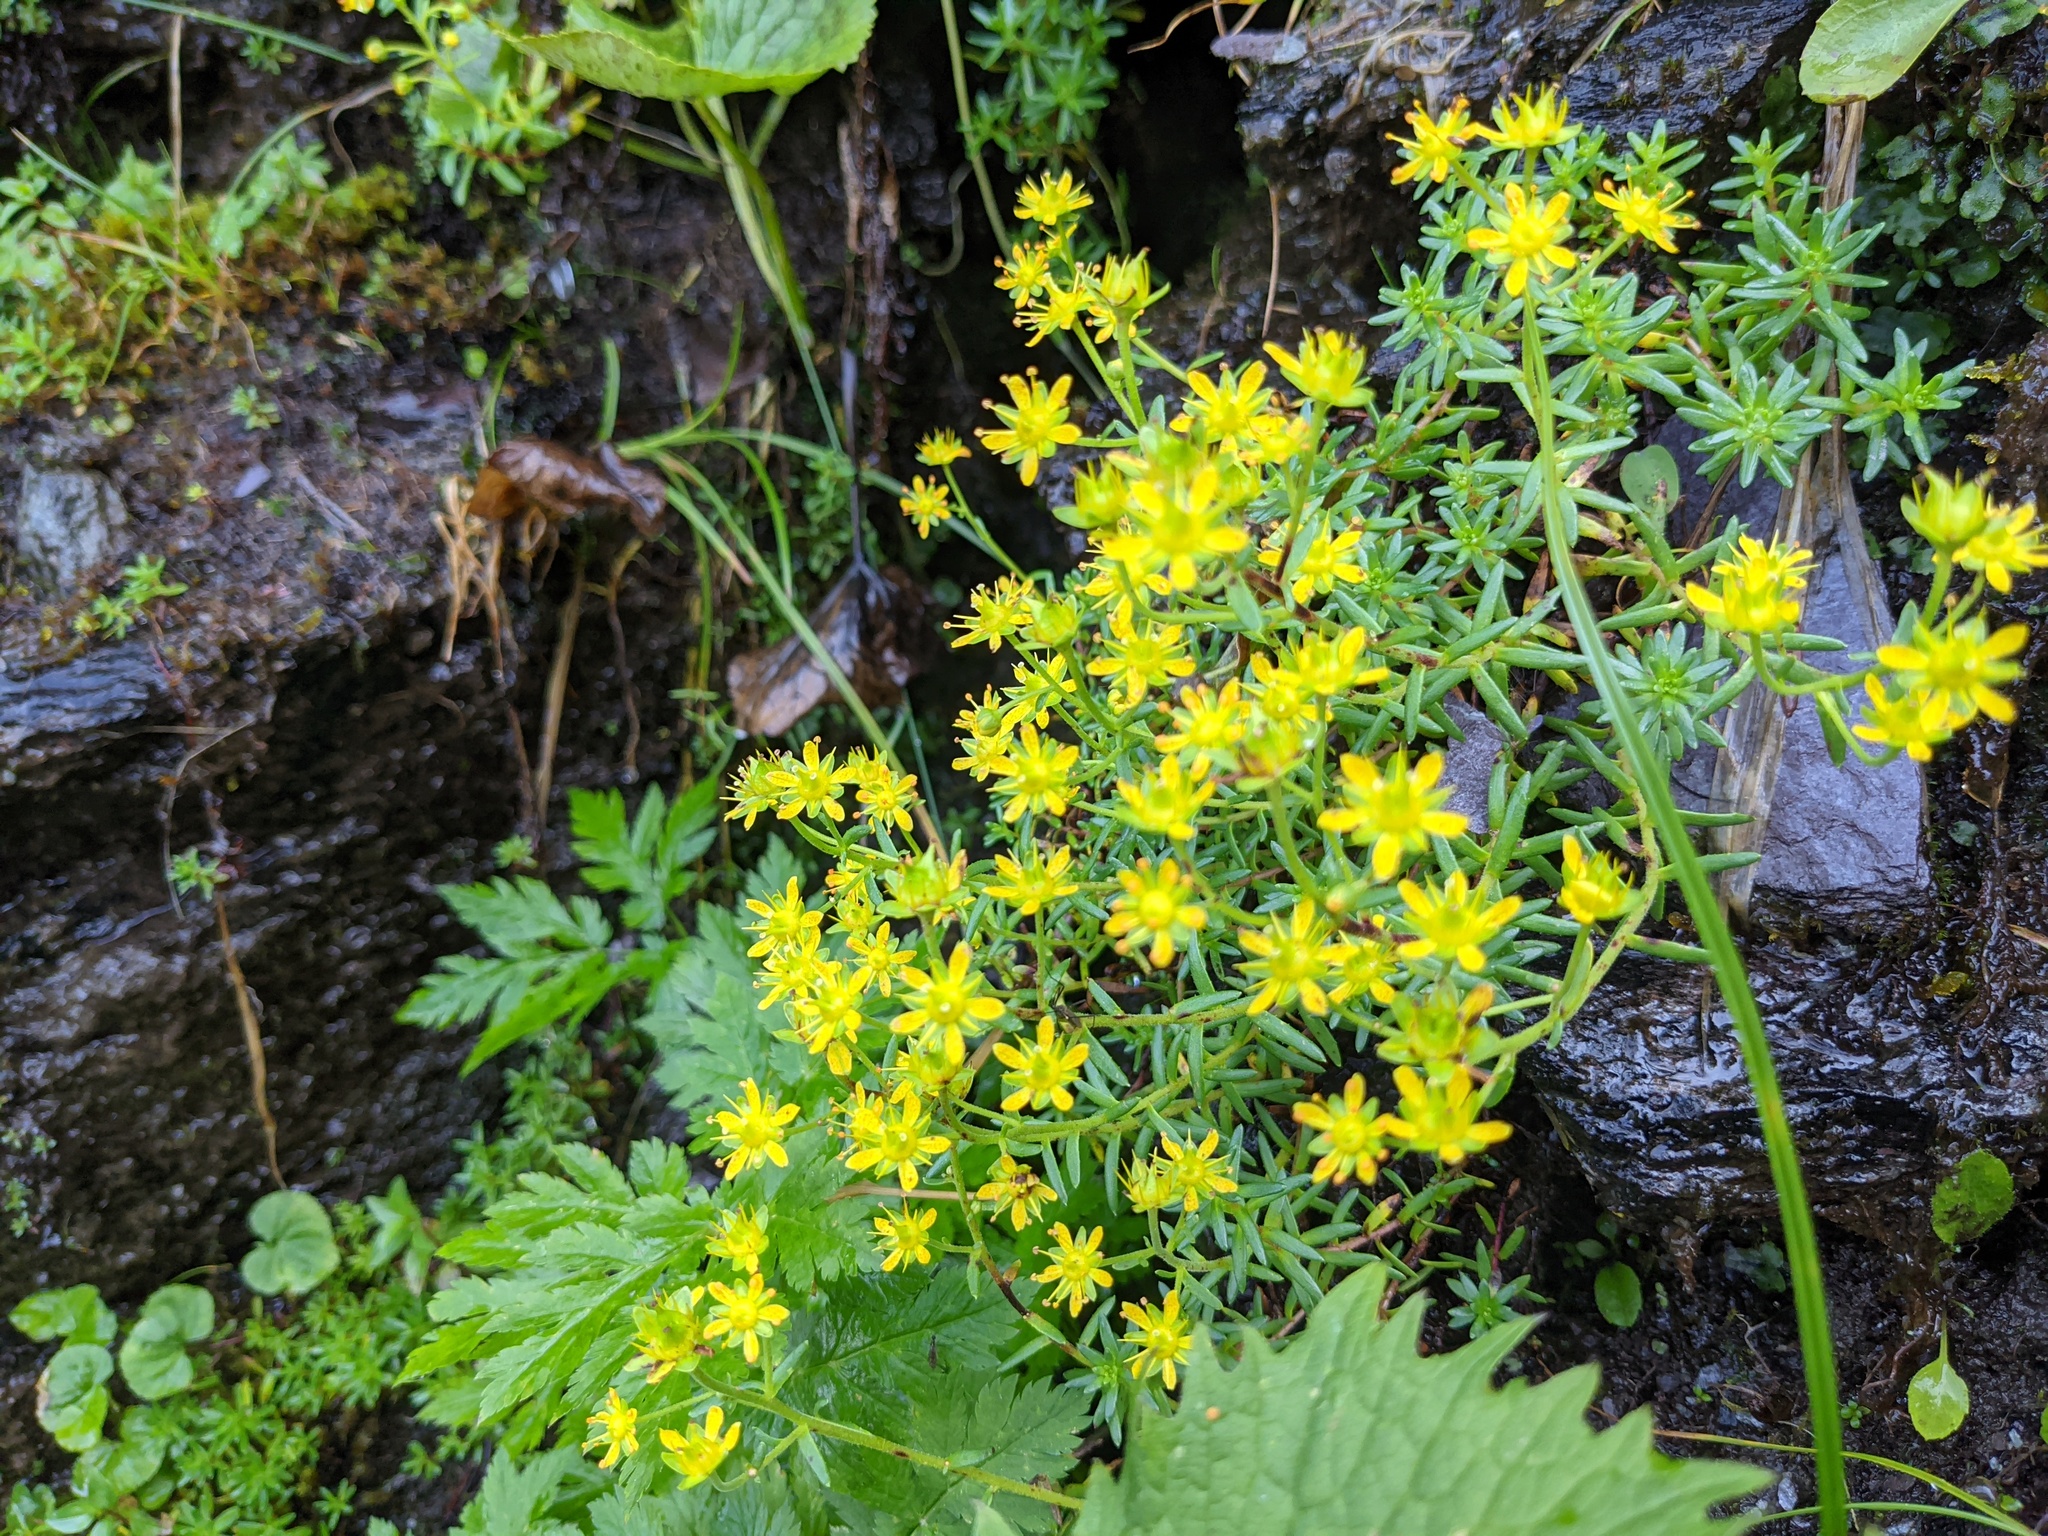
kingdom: Plantae
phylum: Tracheophyta
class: Magnoliopsida
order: Saxifragales
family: Saxifragaceae
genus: Saxifraga
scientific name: Saxifraga aizoides
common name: Yellow mountain saxifrage
